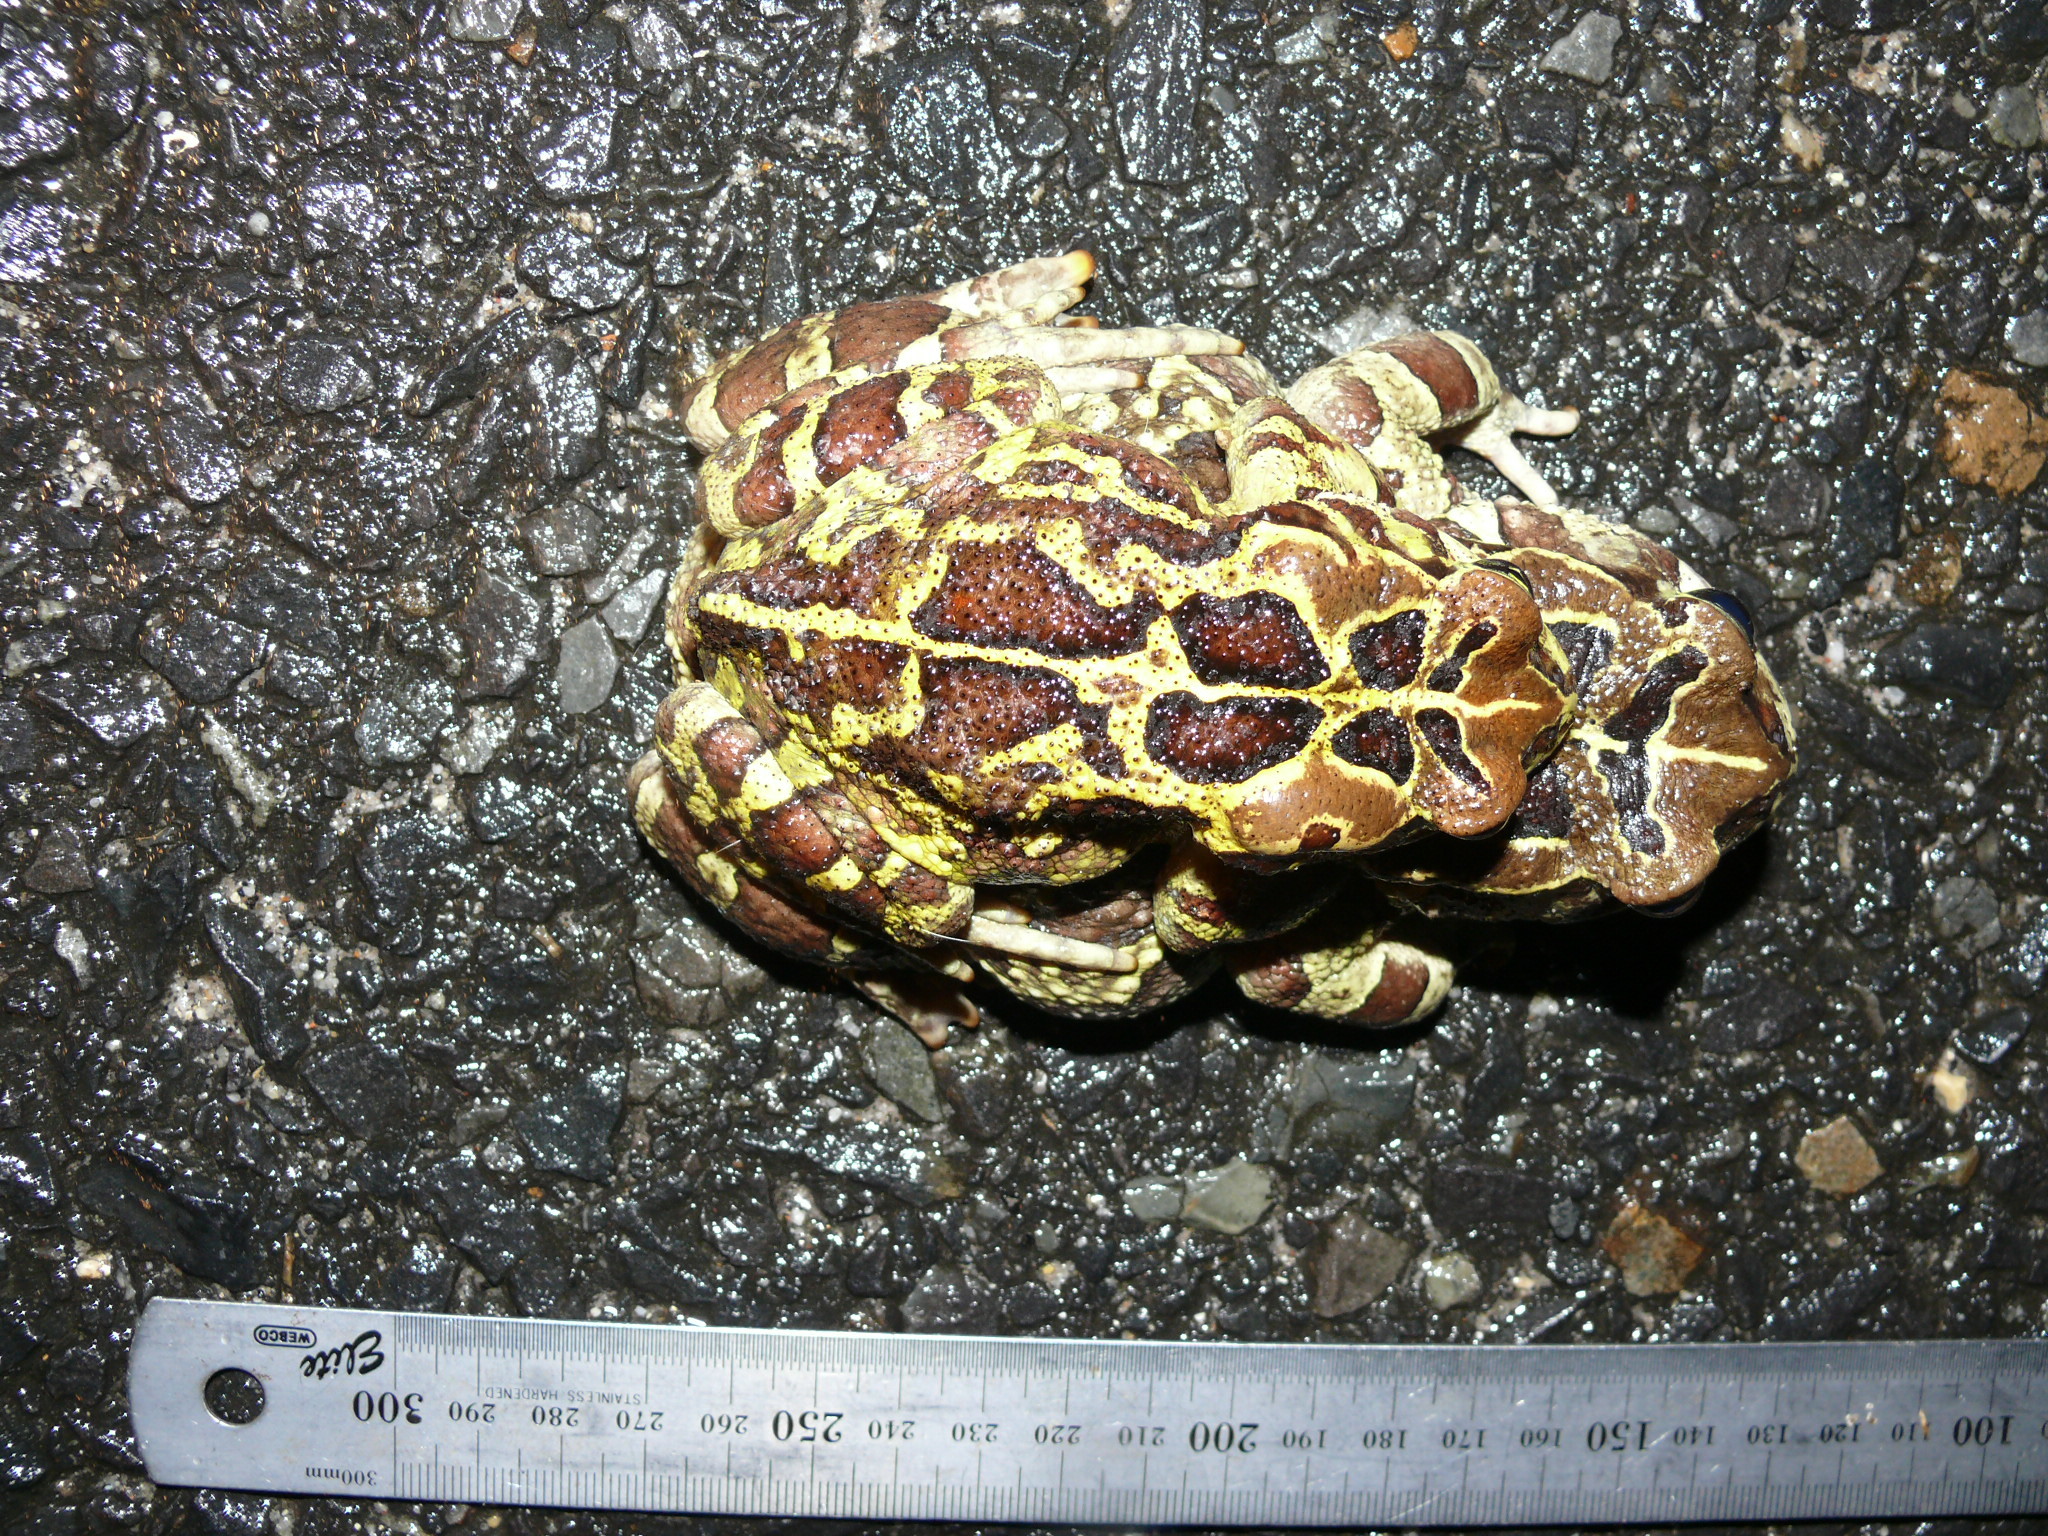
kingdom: Animalia
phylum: Chordata
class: Amphibia
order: Anura
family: Bufonidae
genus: Sclerophrys
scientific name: Sclerophrys pantherina
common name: Panther toad
